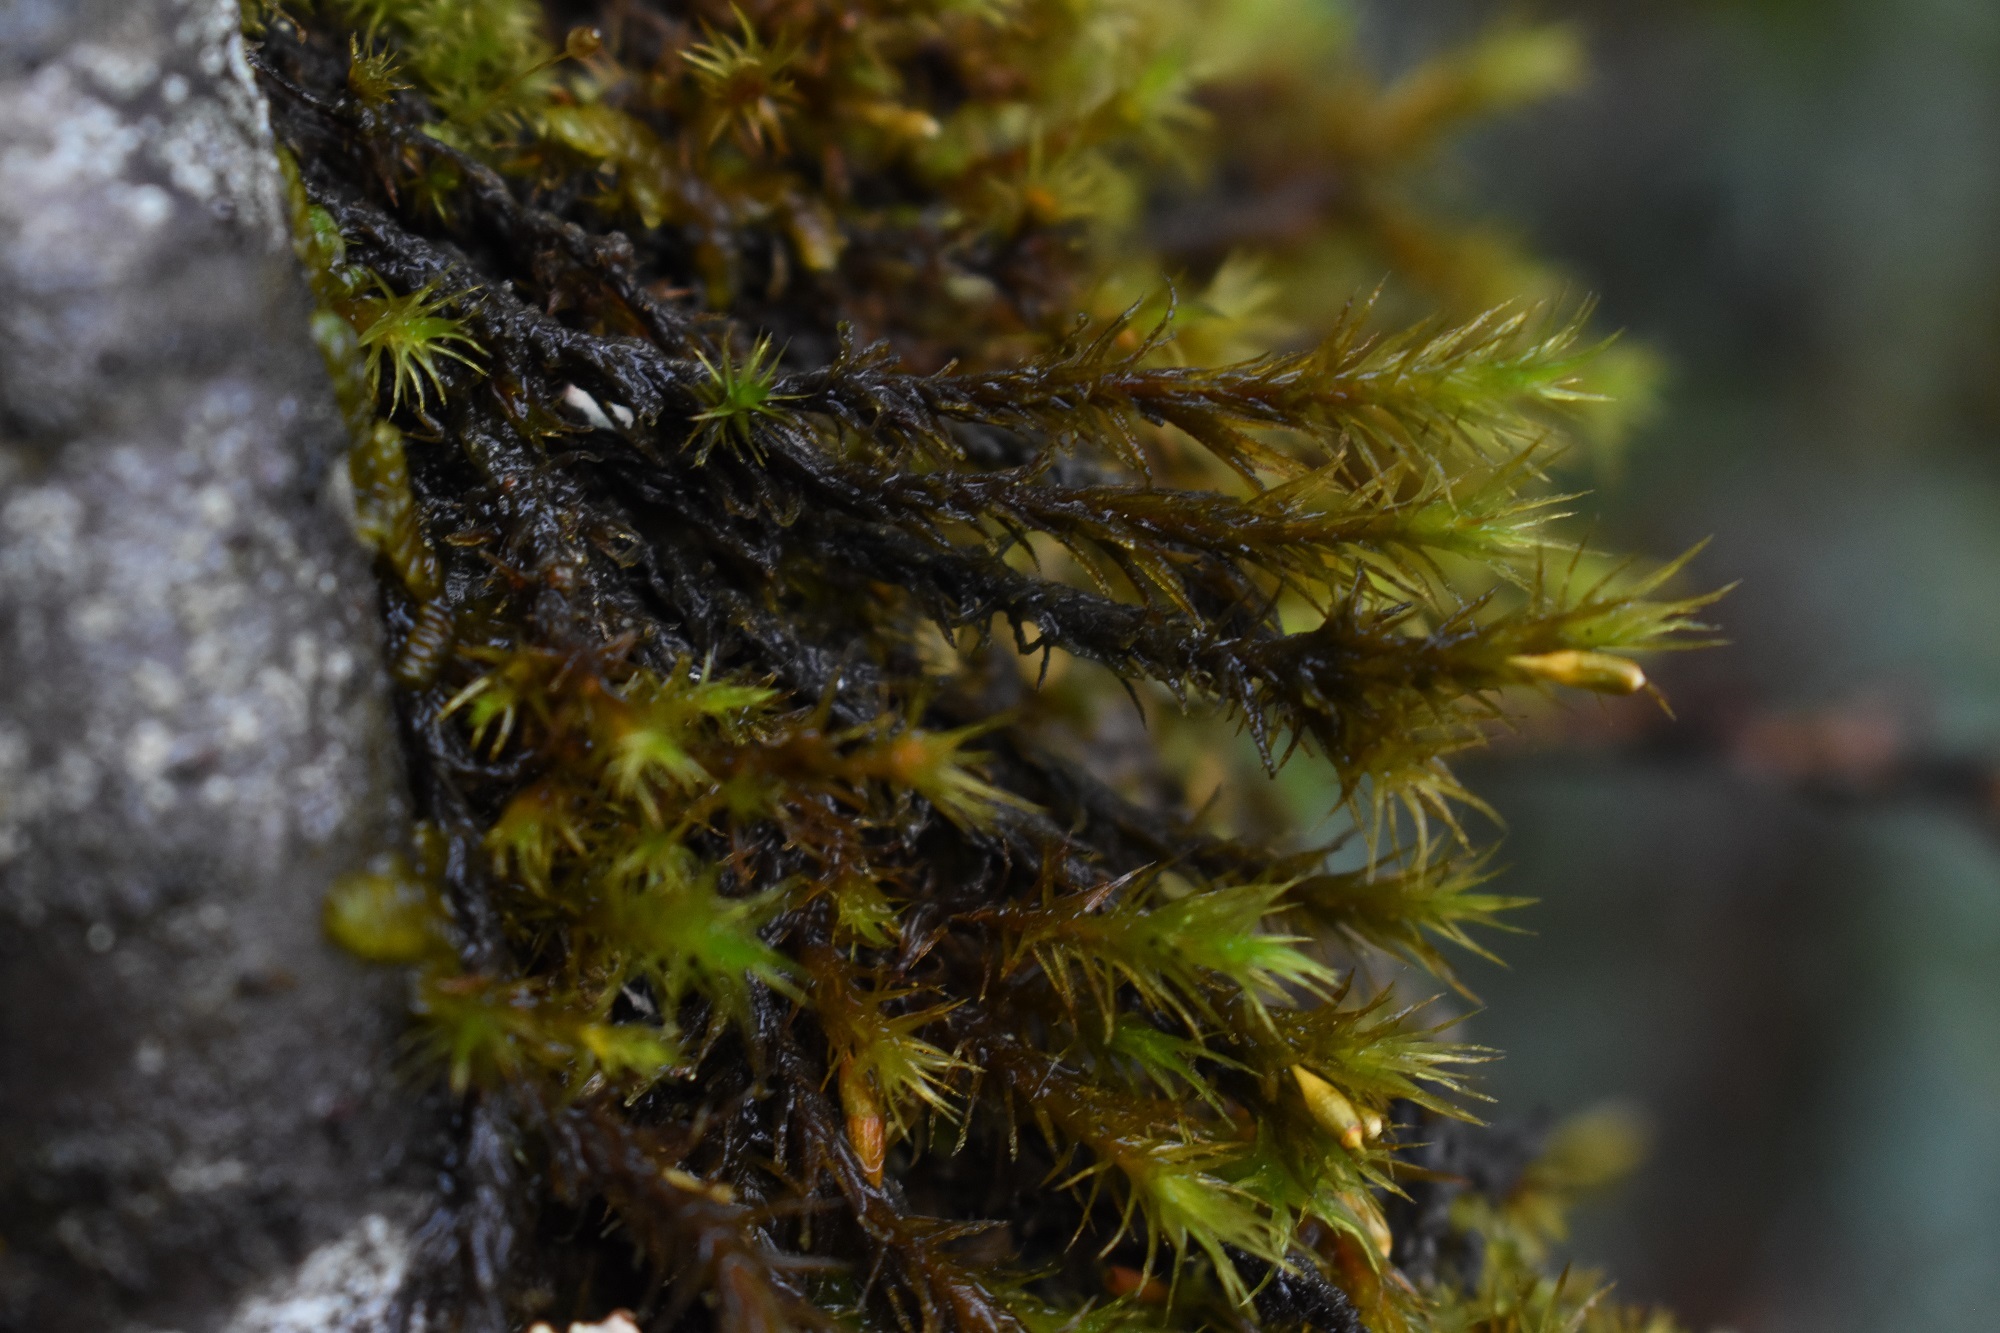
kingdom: Plantae
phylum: Bryophyta
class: Bryopsida
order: Orthotrichales
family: Orthotrichaceae
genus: Pulvigera
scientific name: Pulvigera lyellii
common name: Lyell's bristle-moss
